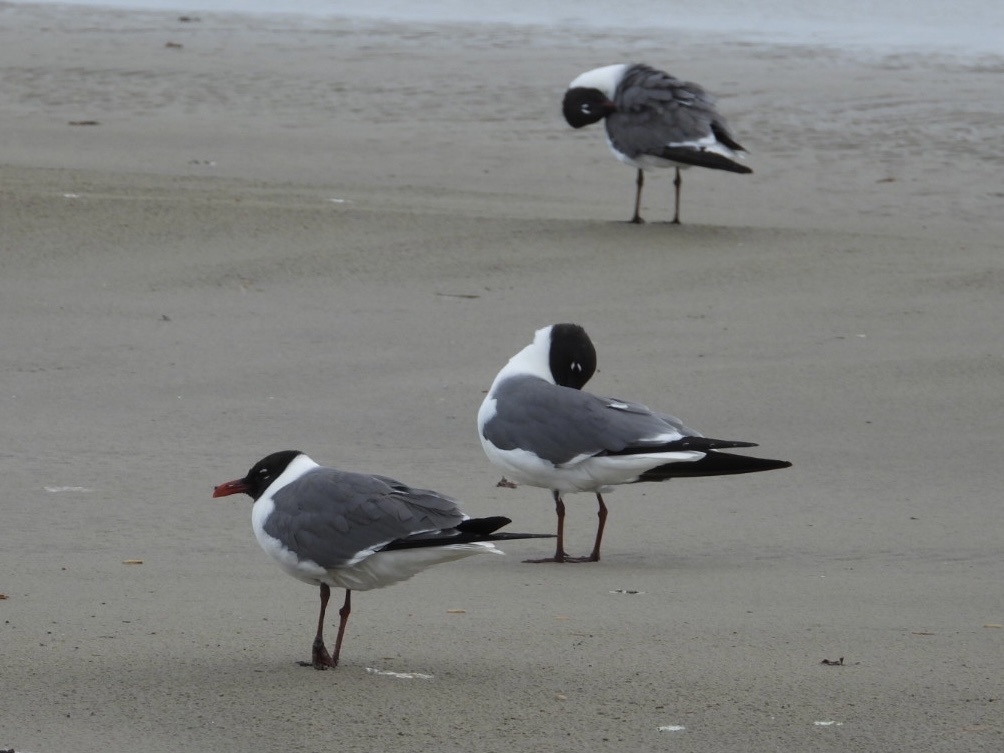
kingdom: Animalia
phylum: Chordata
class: Aves
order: Charadriiformes
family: Laridae
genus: Leucophaeus
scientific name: Leucophaeus atricilla
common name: Laughing gull
